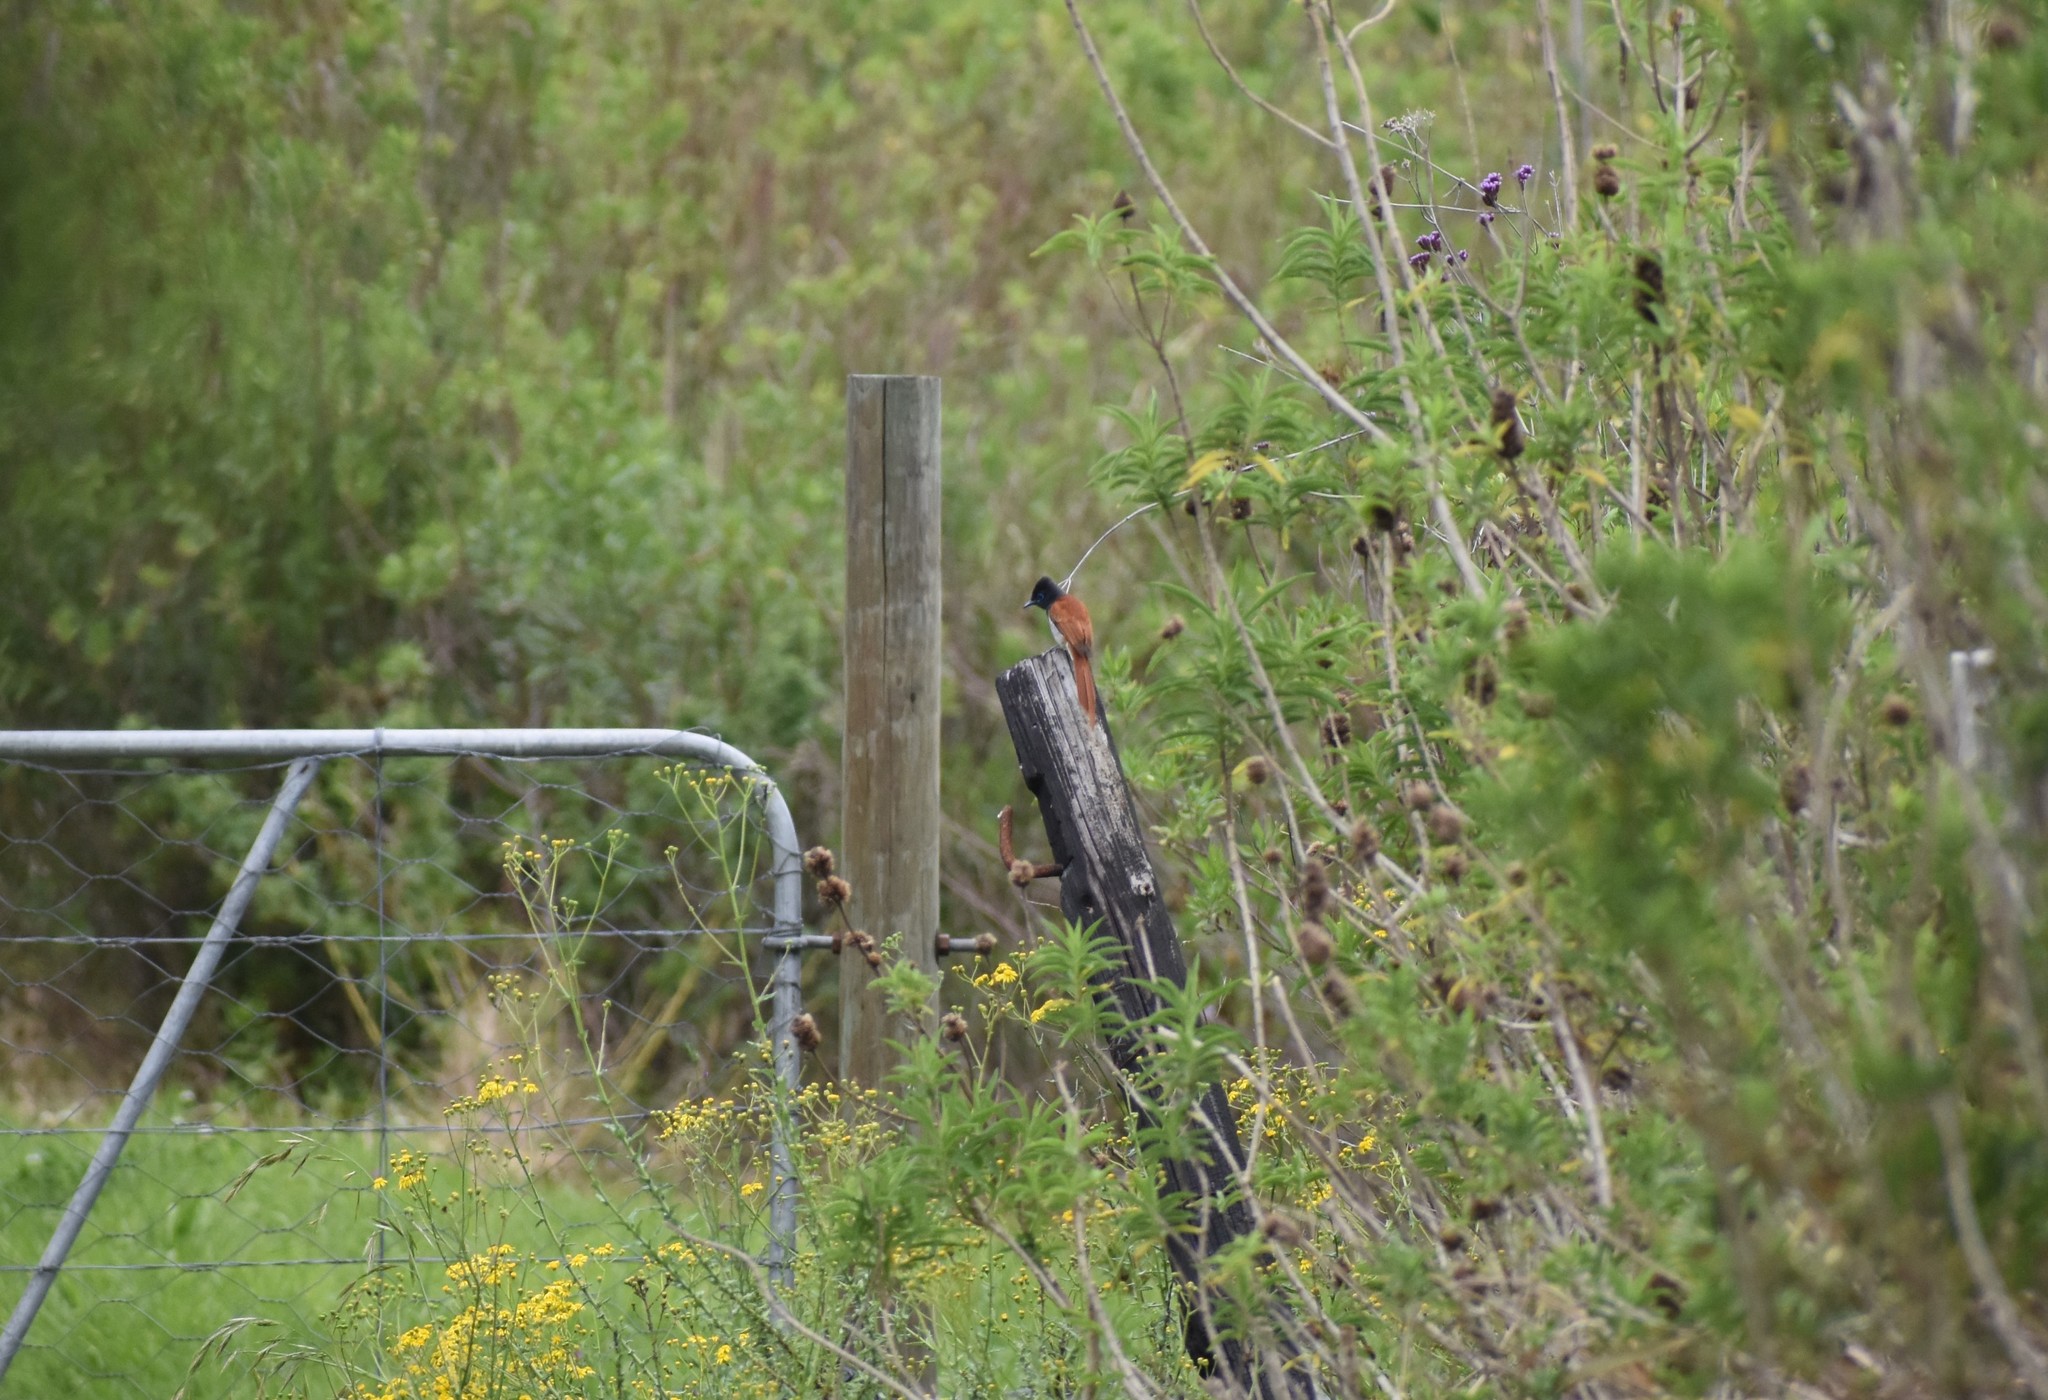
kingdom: Animalia
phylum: Chordata
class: Aves
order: Passeriformes
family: Monarchidae
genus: Terpsiphone
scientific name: Terpsiphone viridis
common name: African paradise flycatcher
